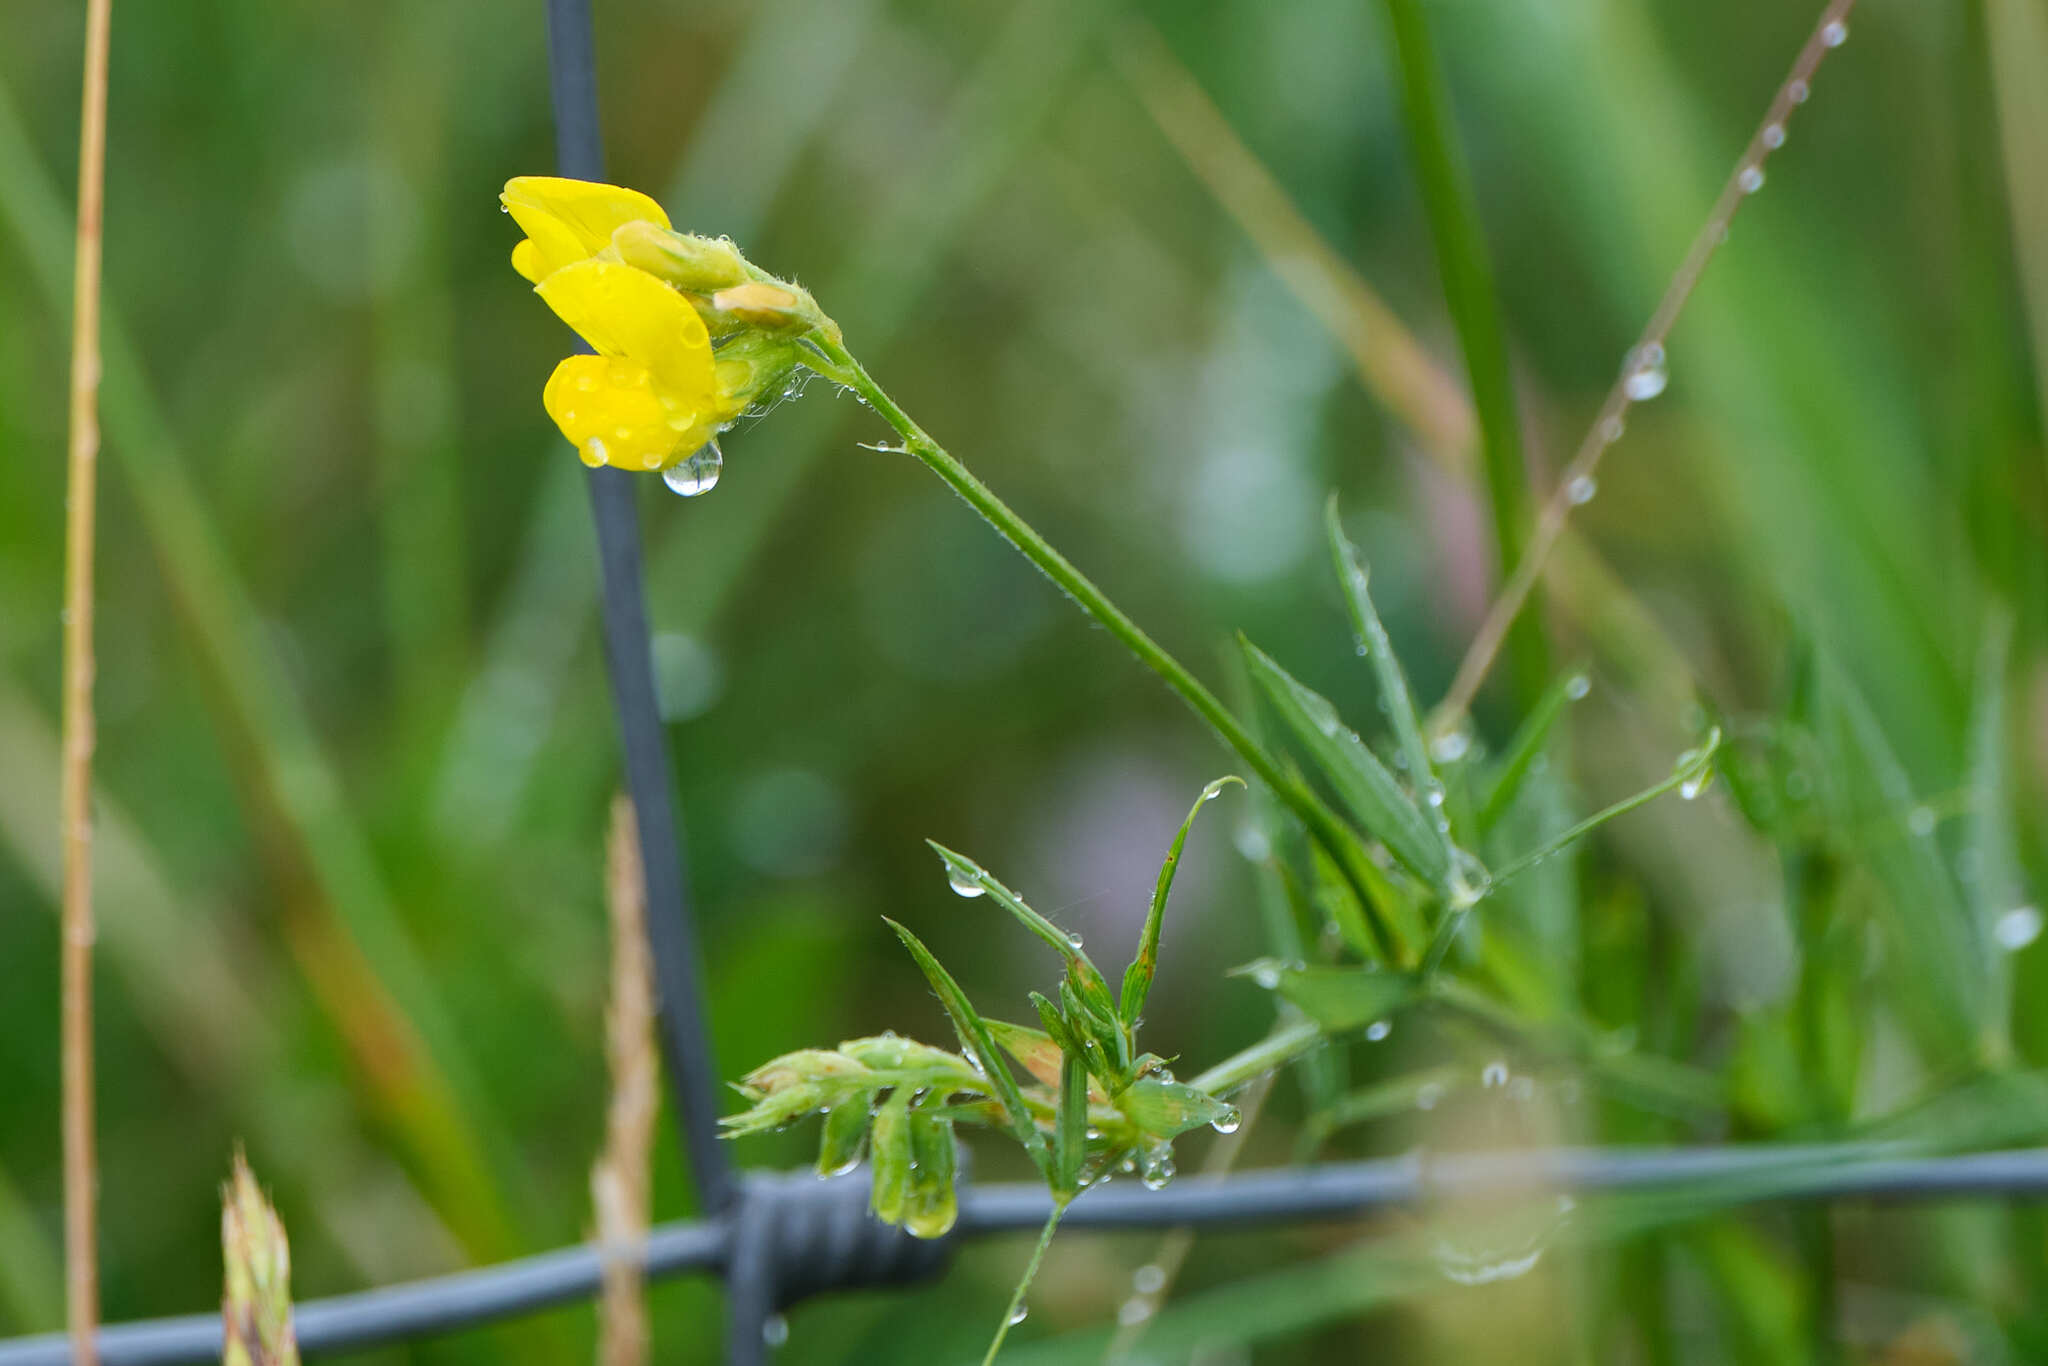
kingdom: Plantae
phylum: Tracheophyta
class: Magnoliopsida
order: Fabales
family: Fabaceae
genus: Lathyrus
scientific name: Lathyrus pratensis
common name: Meadow vetchling
